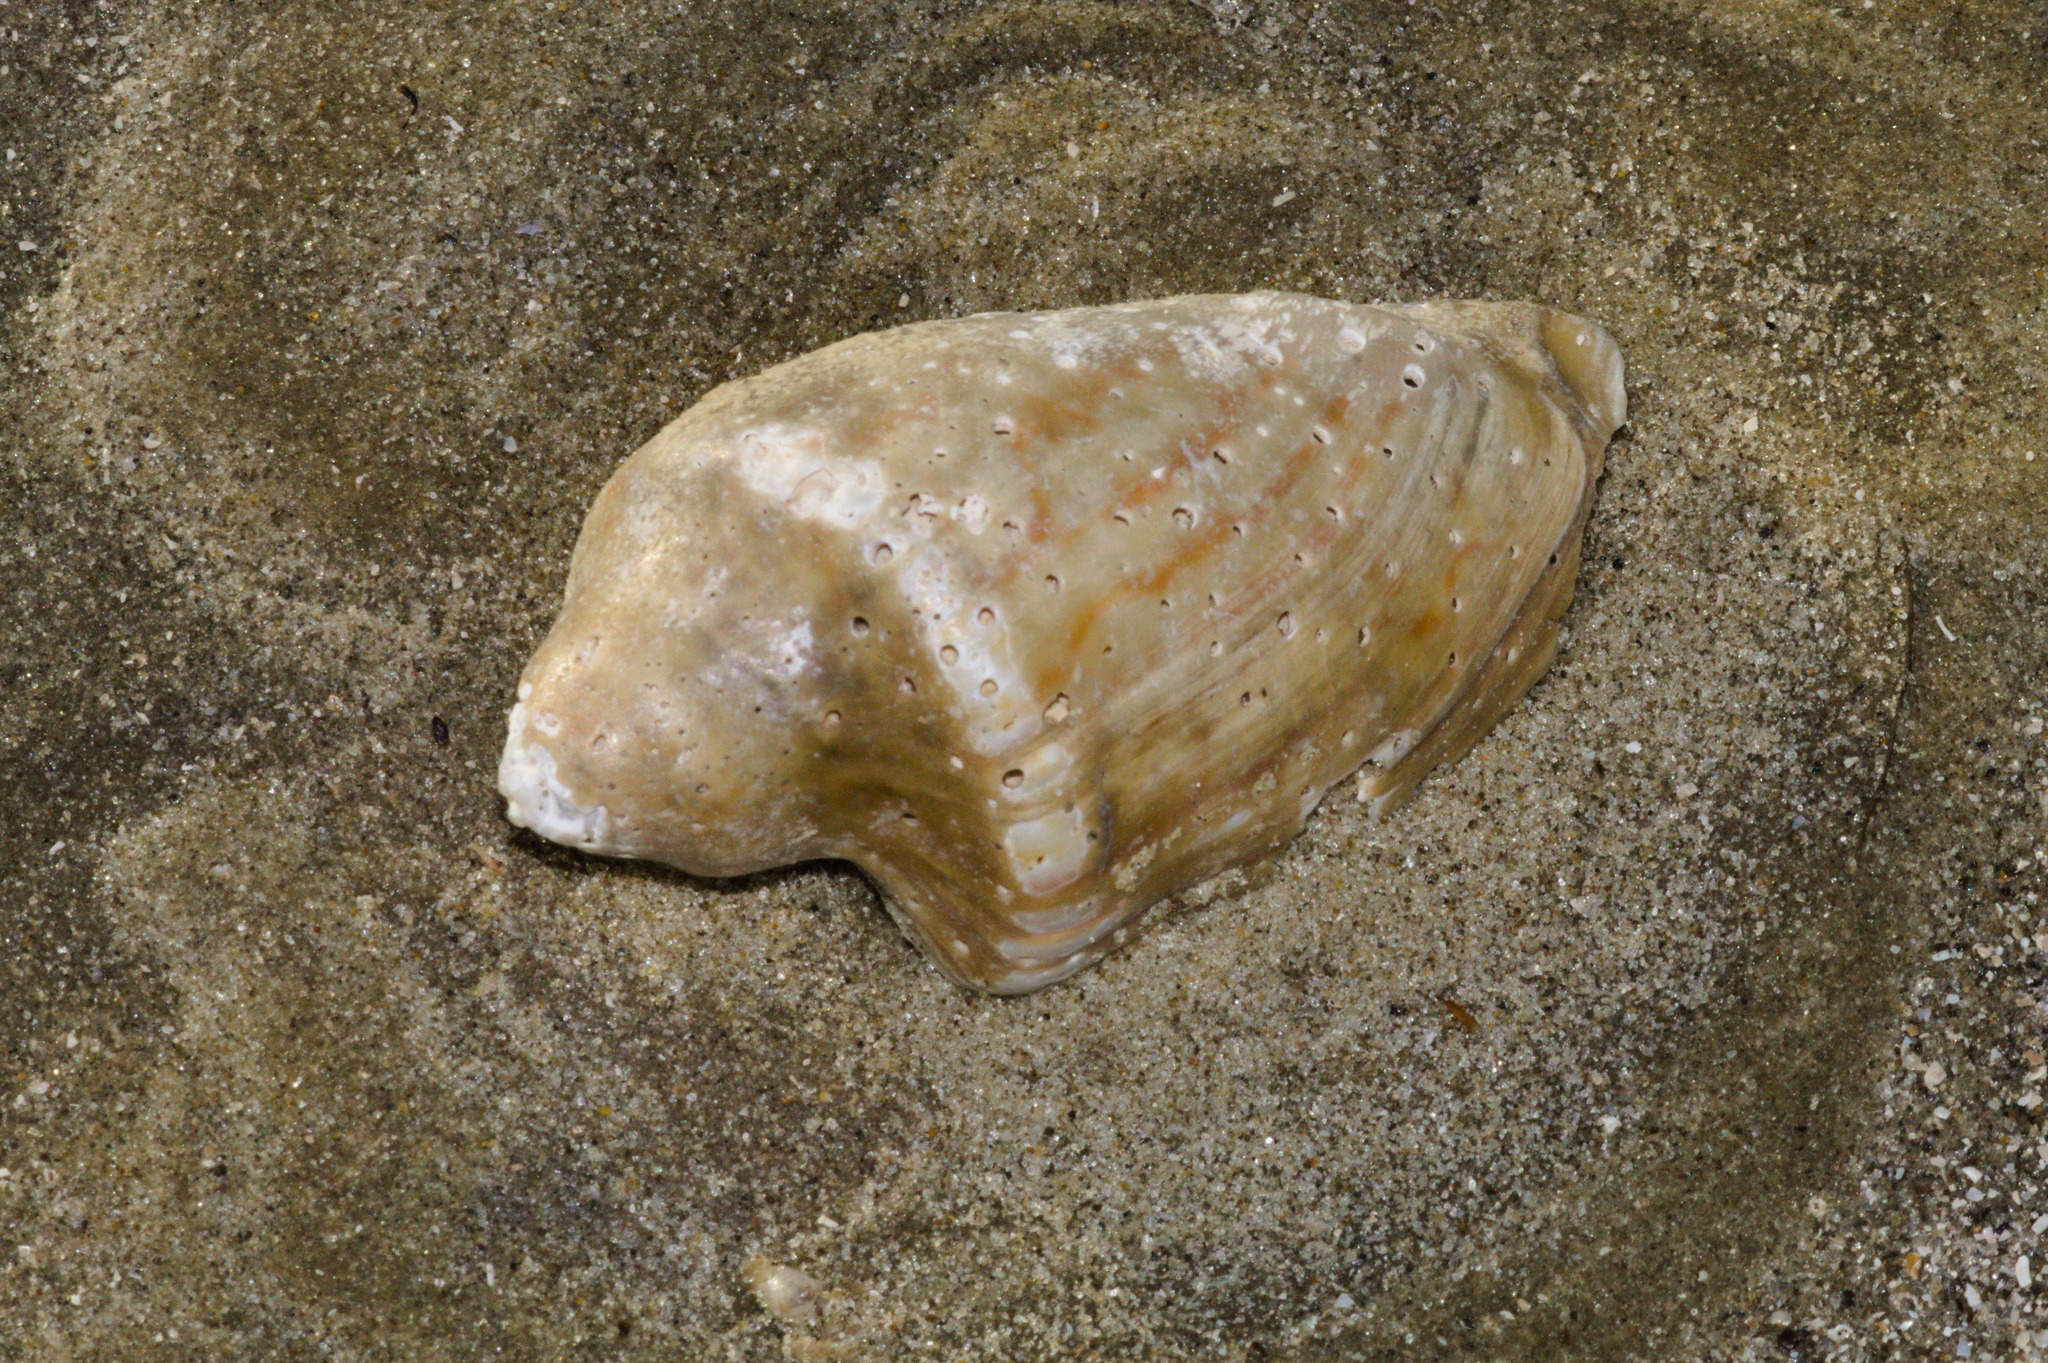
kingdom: Animalia
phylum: Mollusca
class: Gastropoda
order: Neogastropoda
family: Volutidae
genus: Zidona
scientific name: Zidona dufresnii
